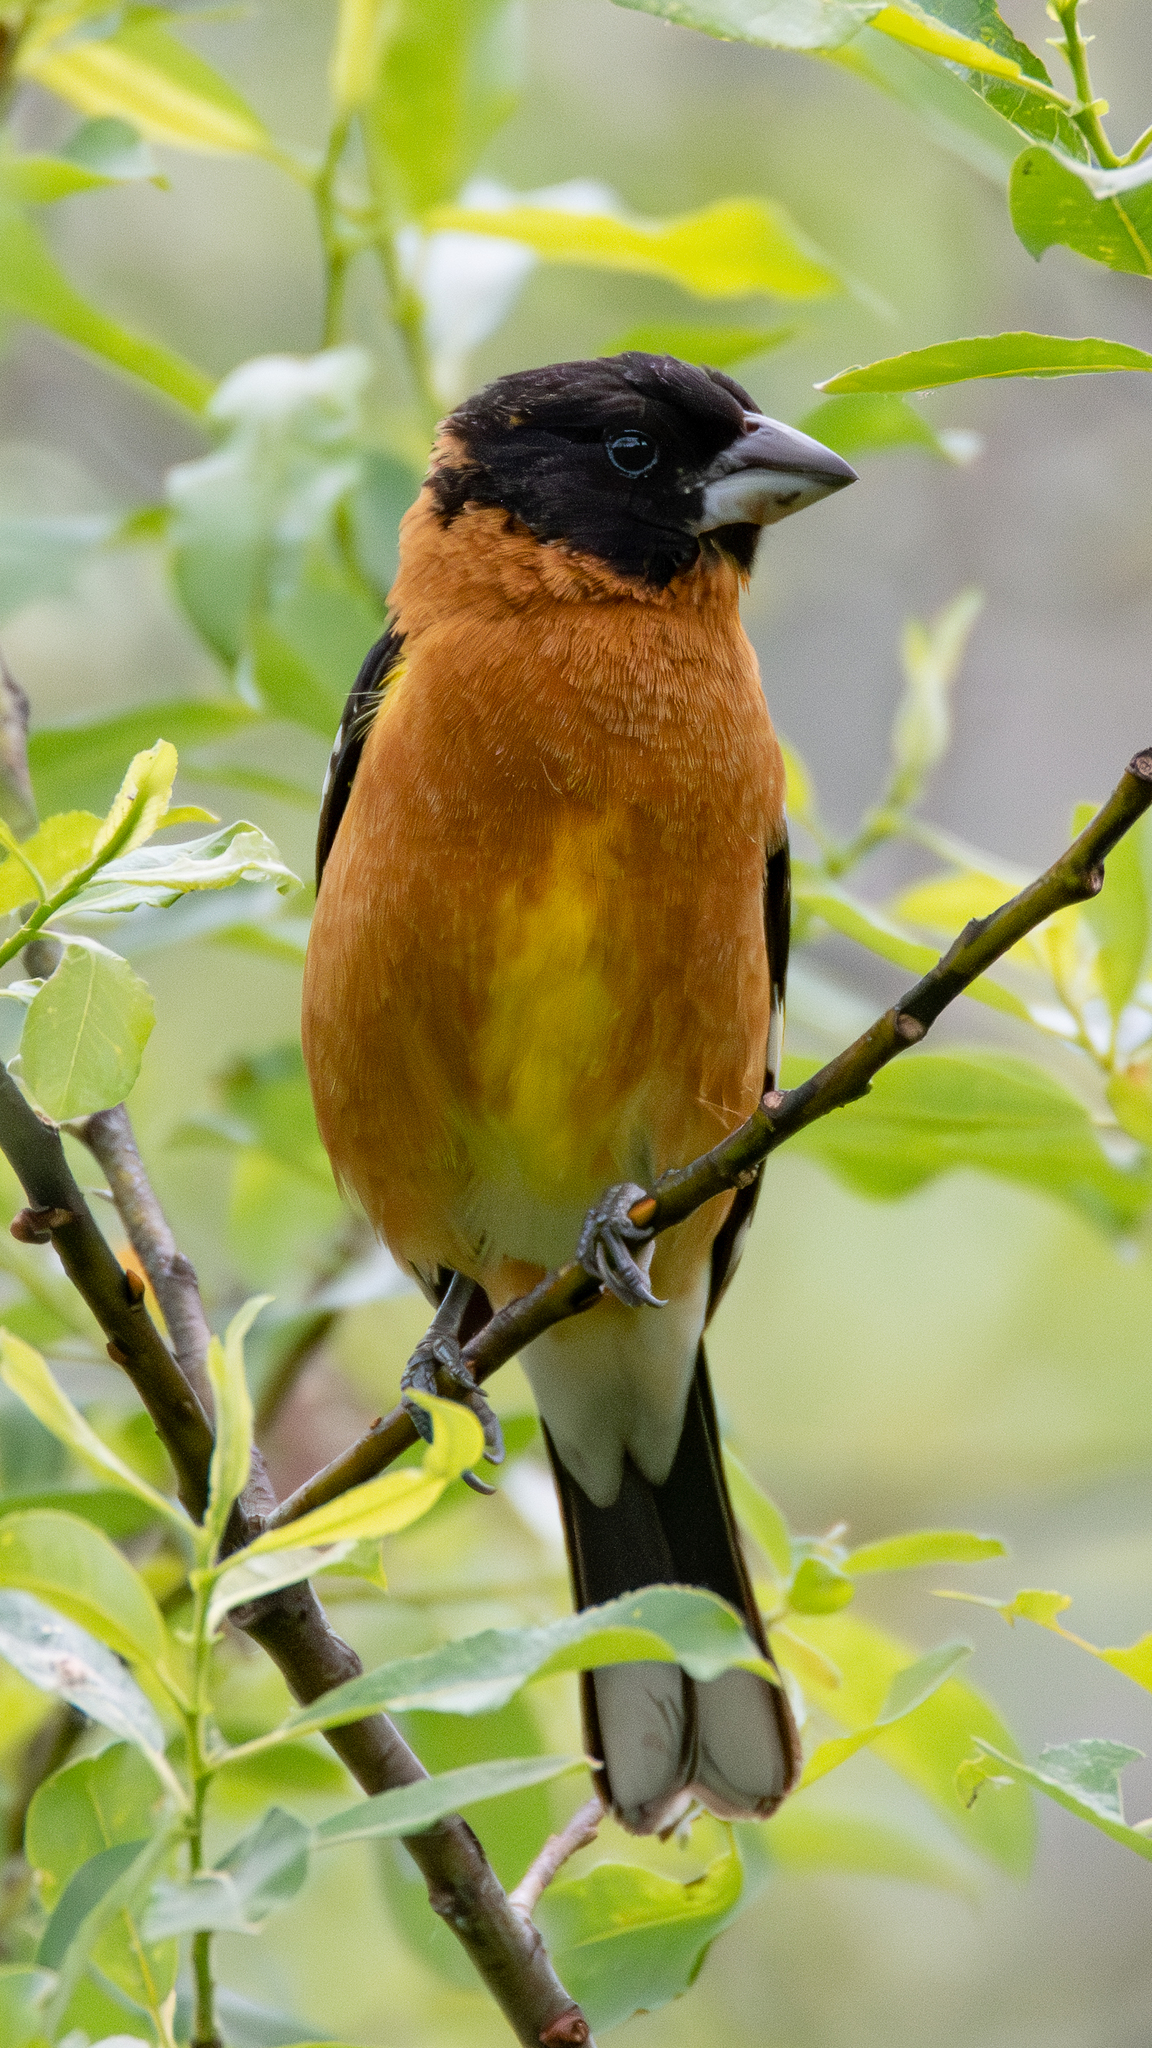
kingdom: Animalia
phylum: Chordata
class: Aves
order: Passeriformes
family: Cardinalidae
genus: Pheucticus
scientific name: Pheucticus melanocephalus
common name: Black-headed grosbeak
